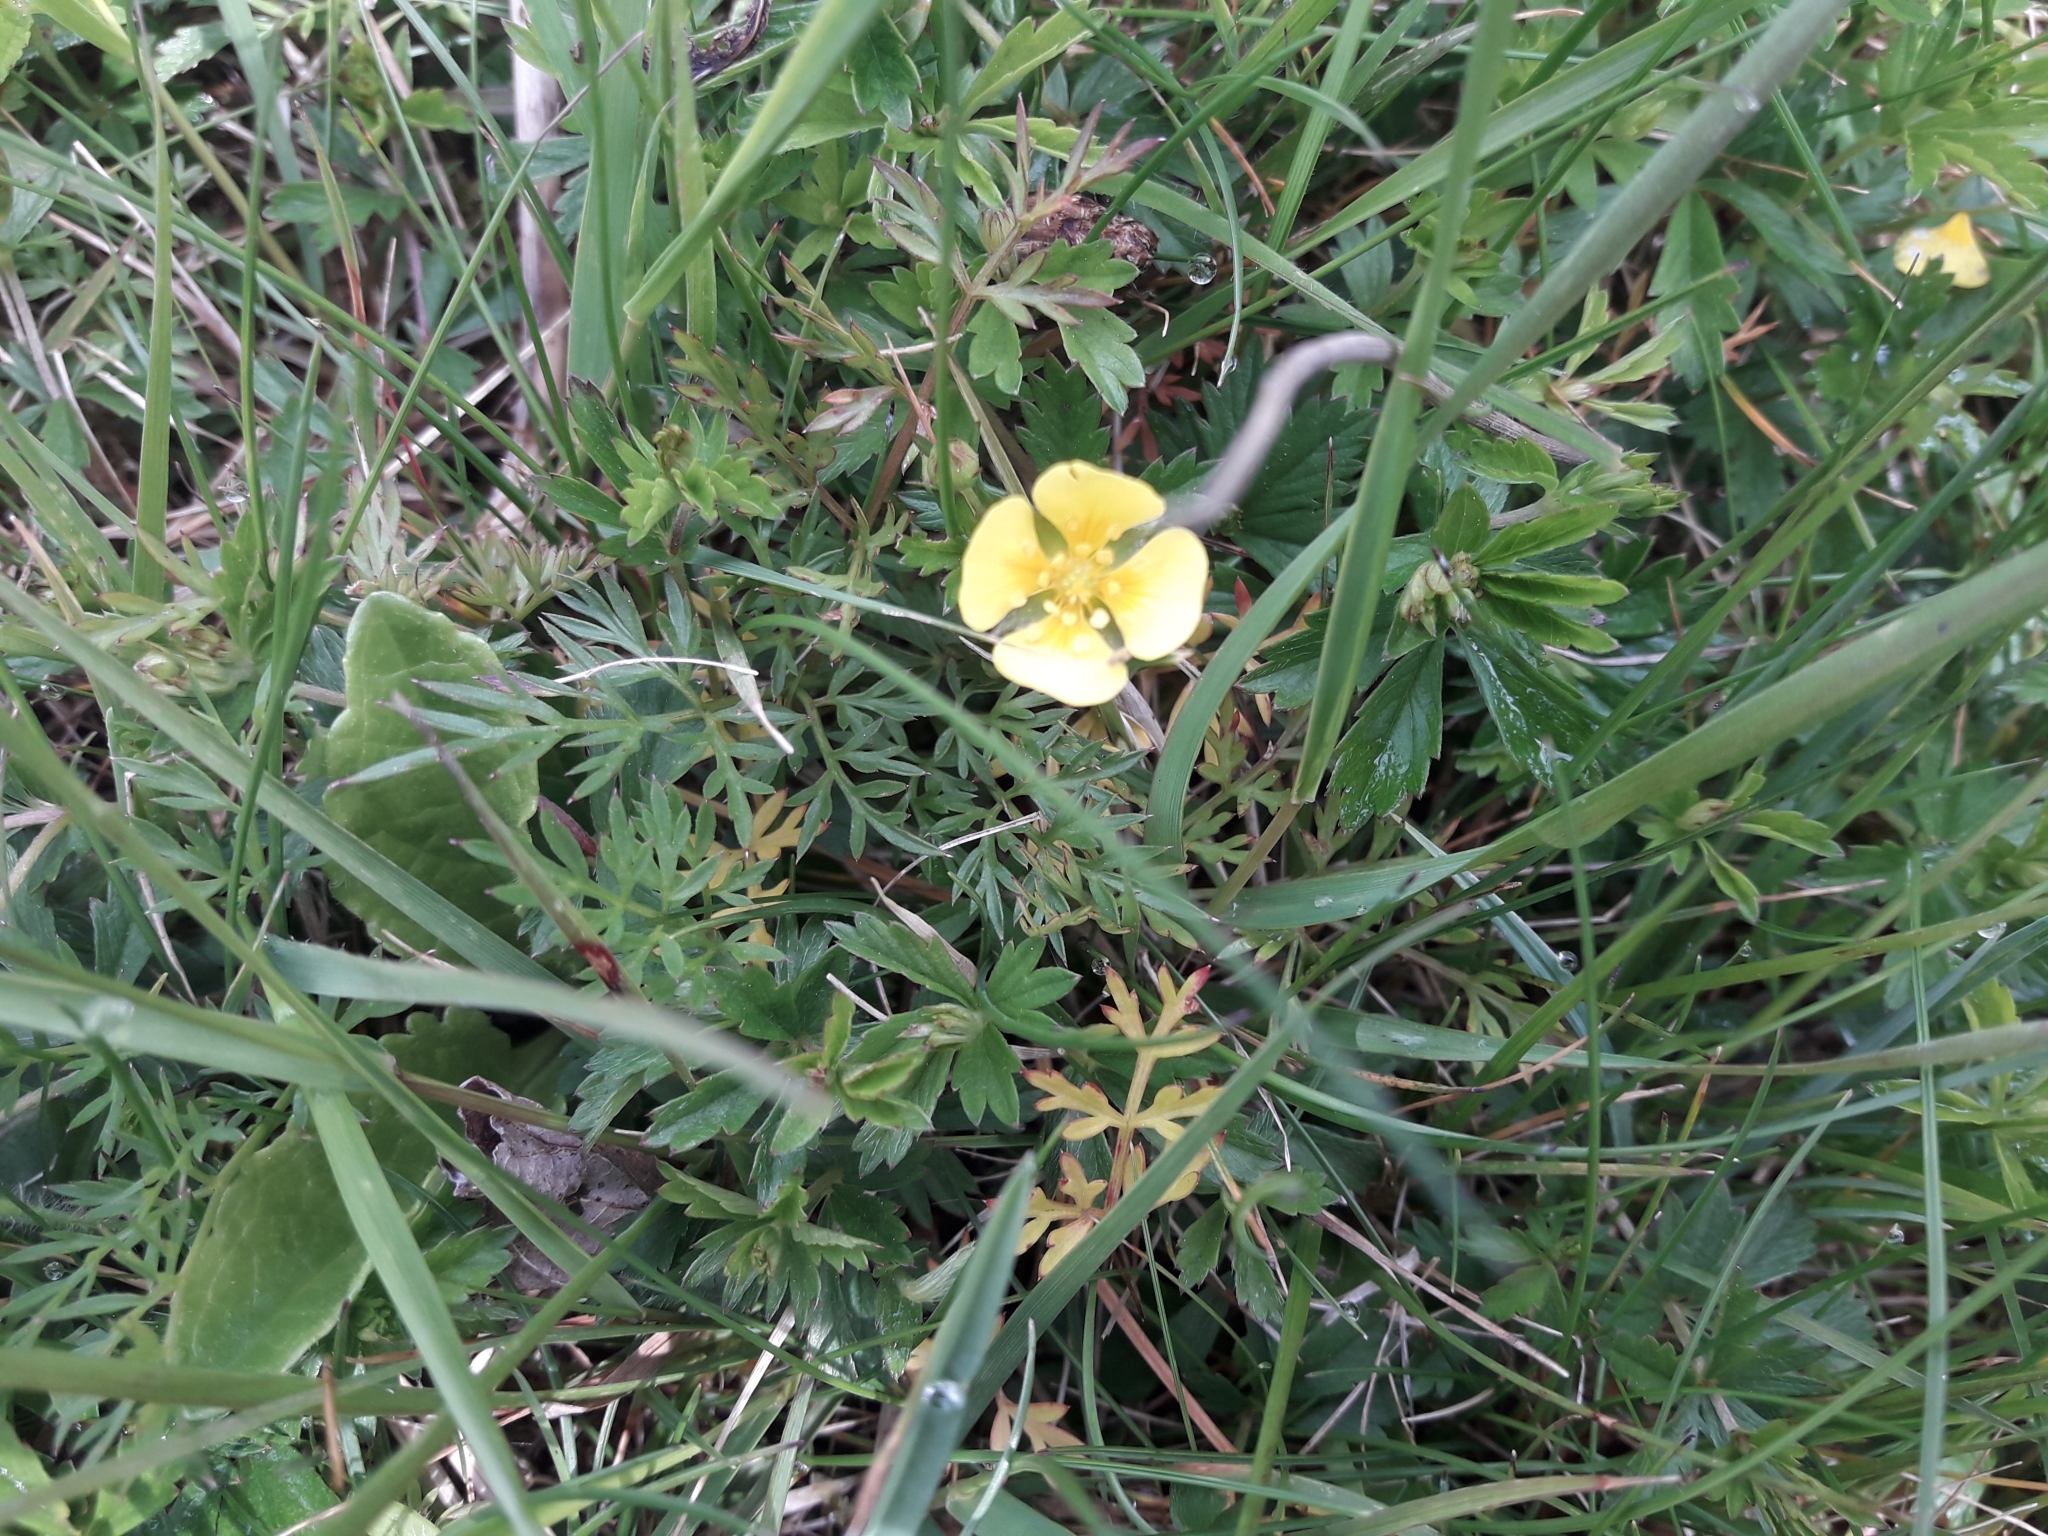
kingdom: Plantae
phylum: Tracheophyta
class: Magnoliopsida
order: Rosales
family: Rosaceae
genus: Potentilla
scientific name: Potentilla erecta
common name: Tormentil
